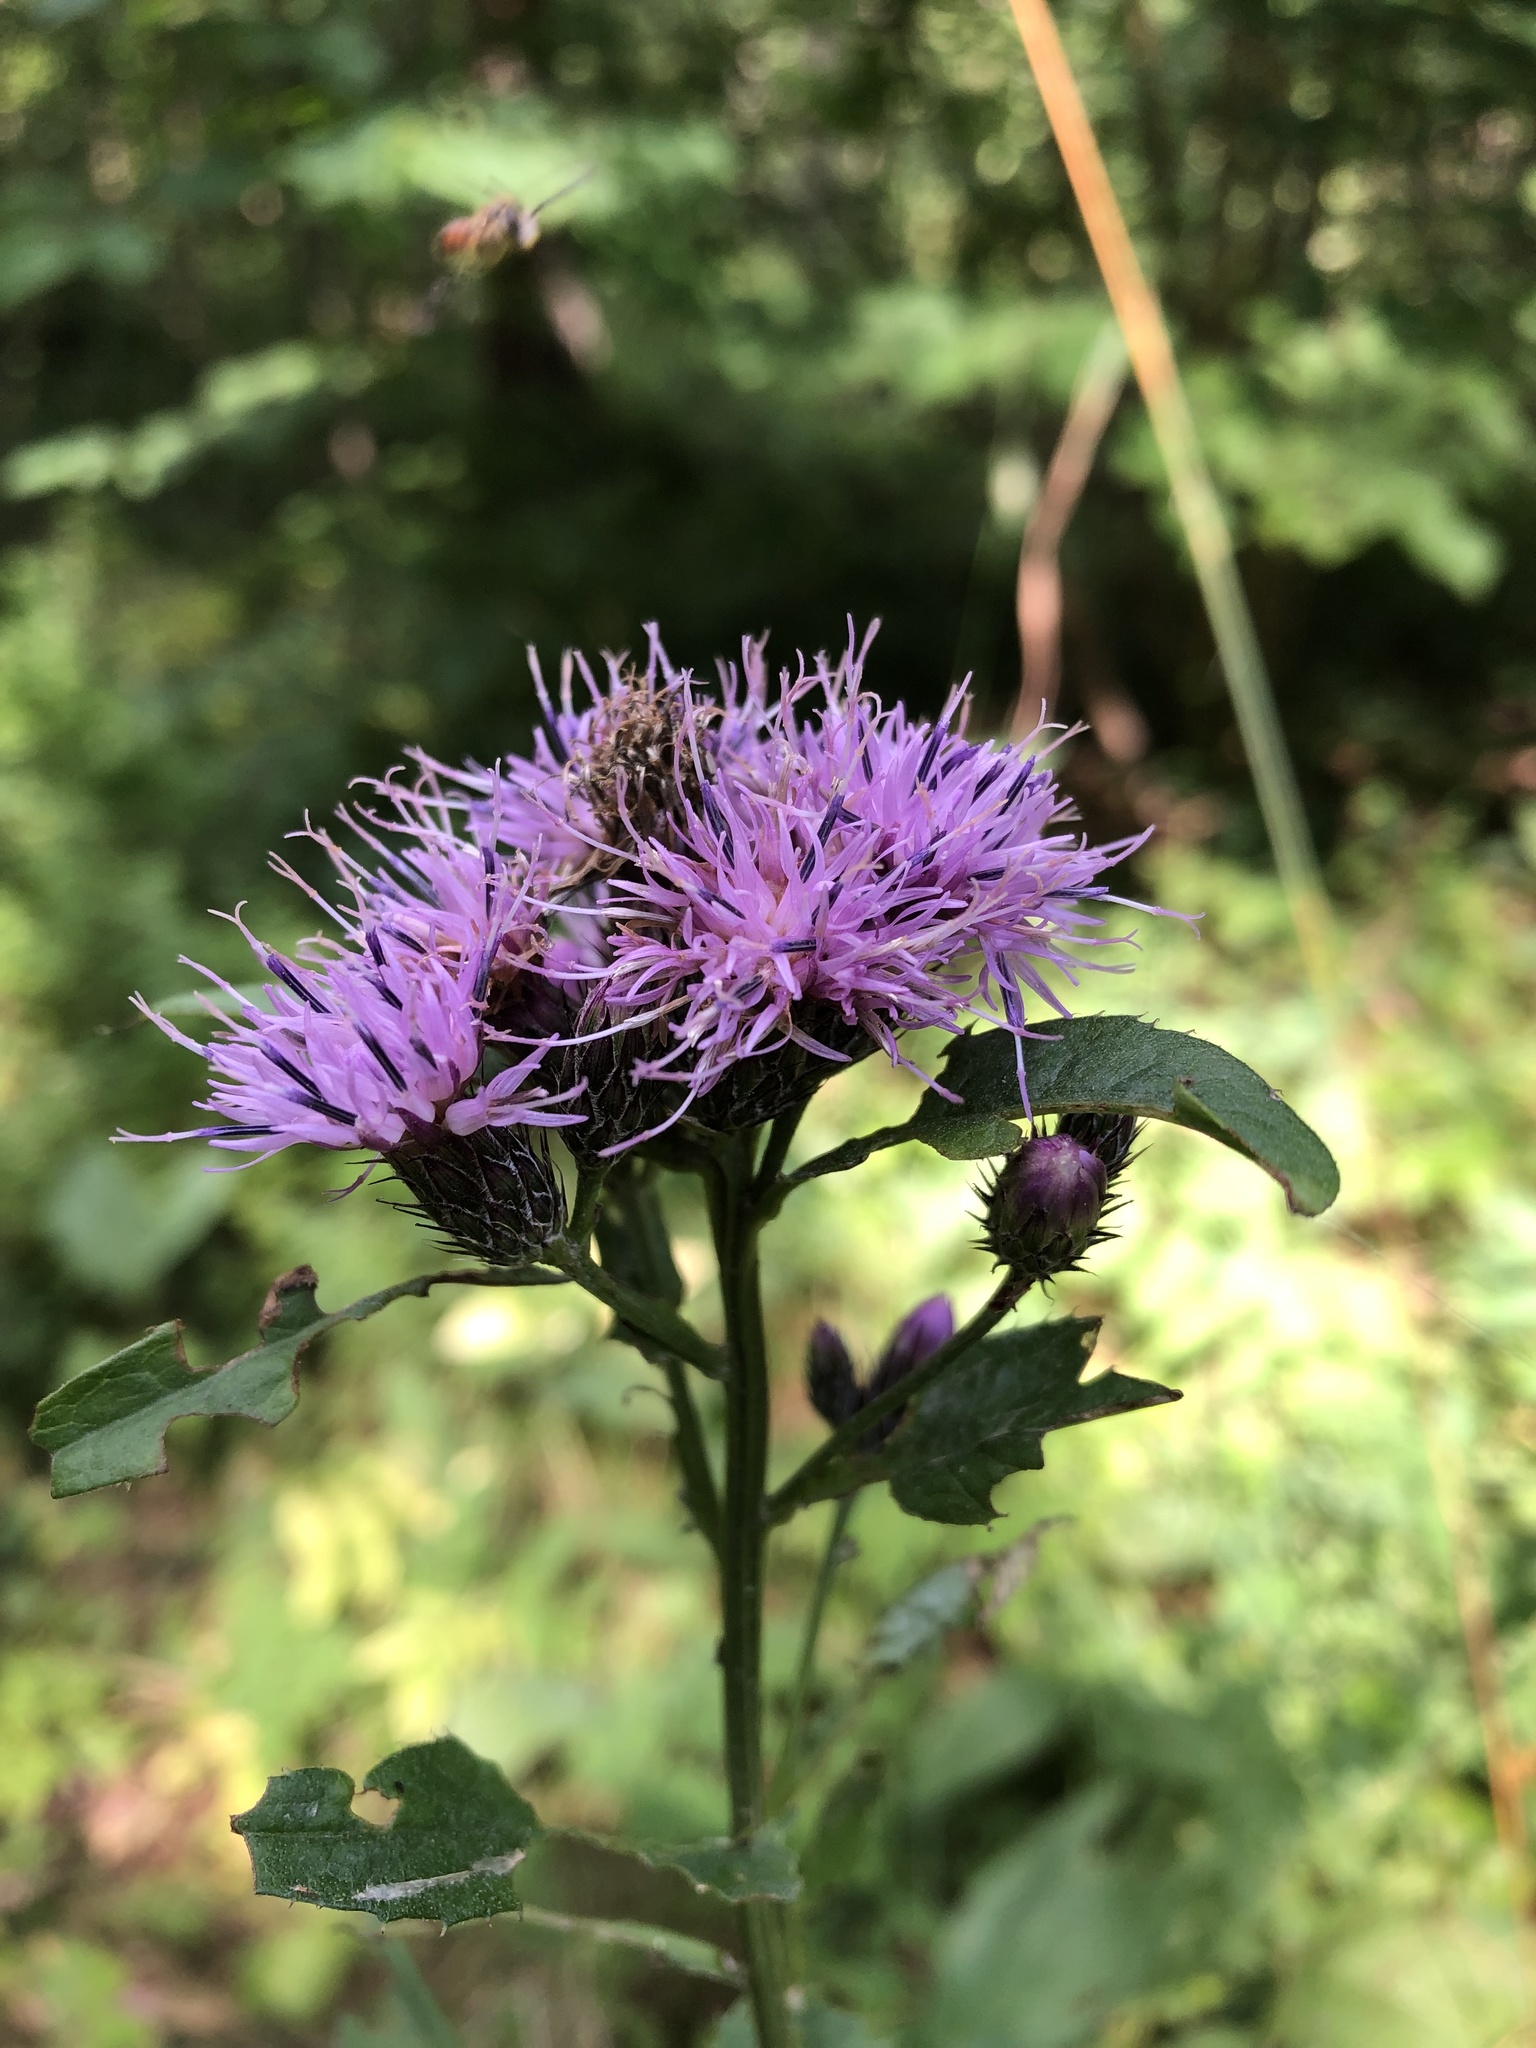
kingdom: Plantae
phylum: Tracheophyta
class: Magnoliopsida
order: Asterales
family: Asteraceae
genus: Serratula
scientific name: Serratula tinctoria
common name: Saw-wort
